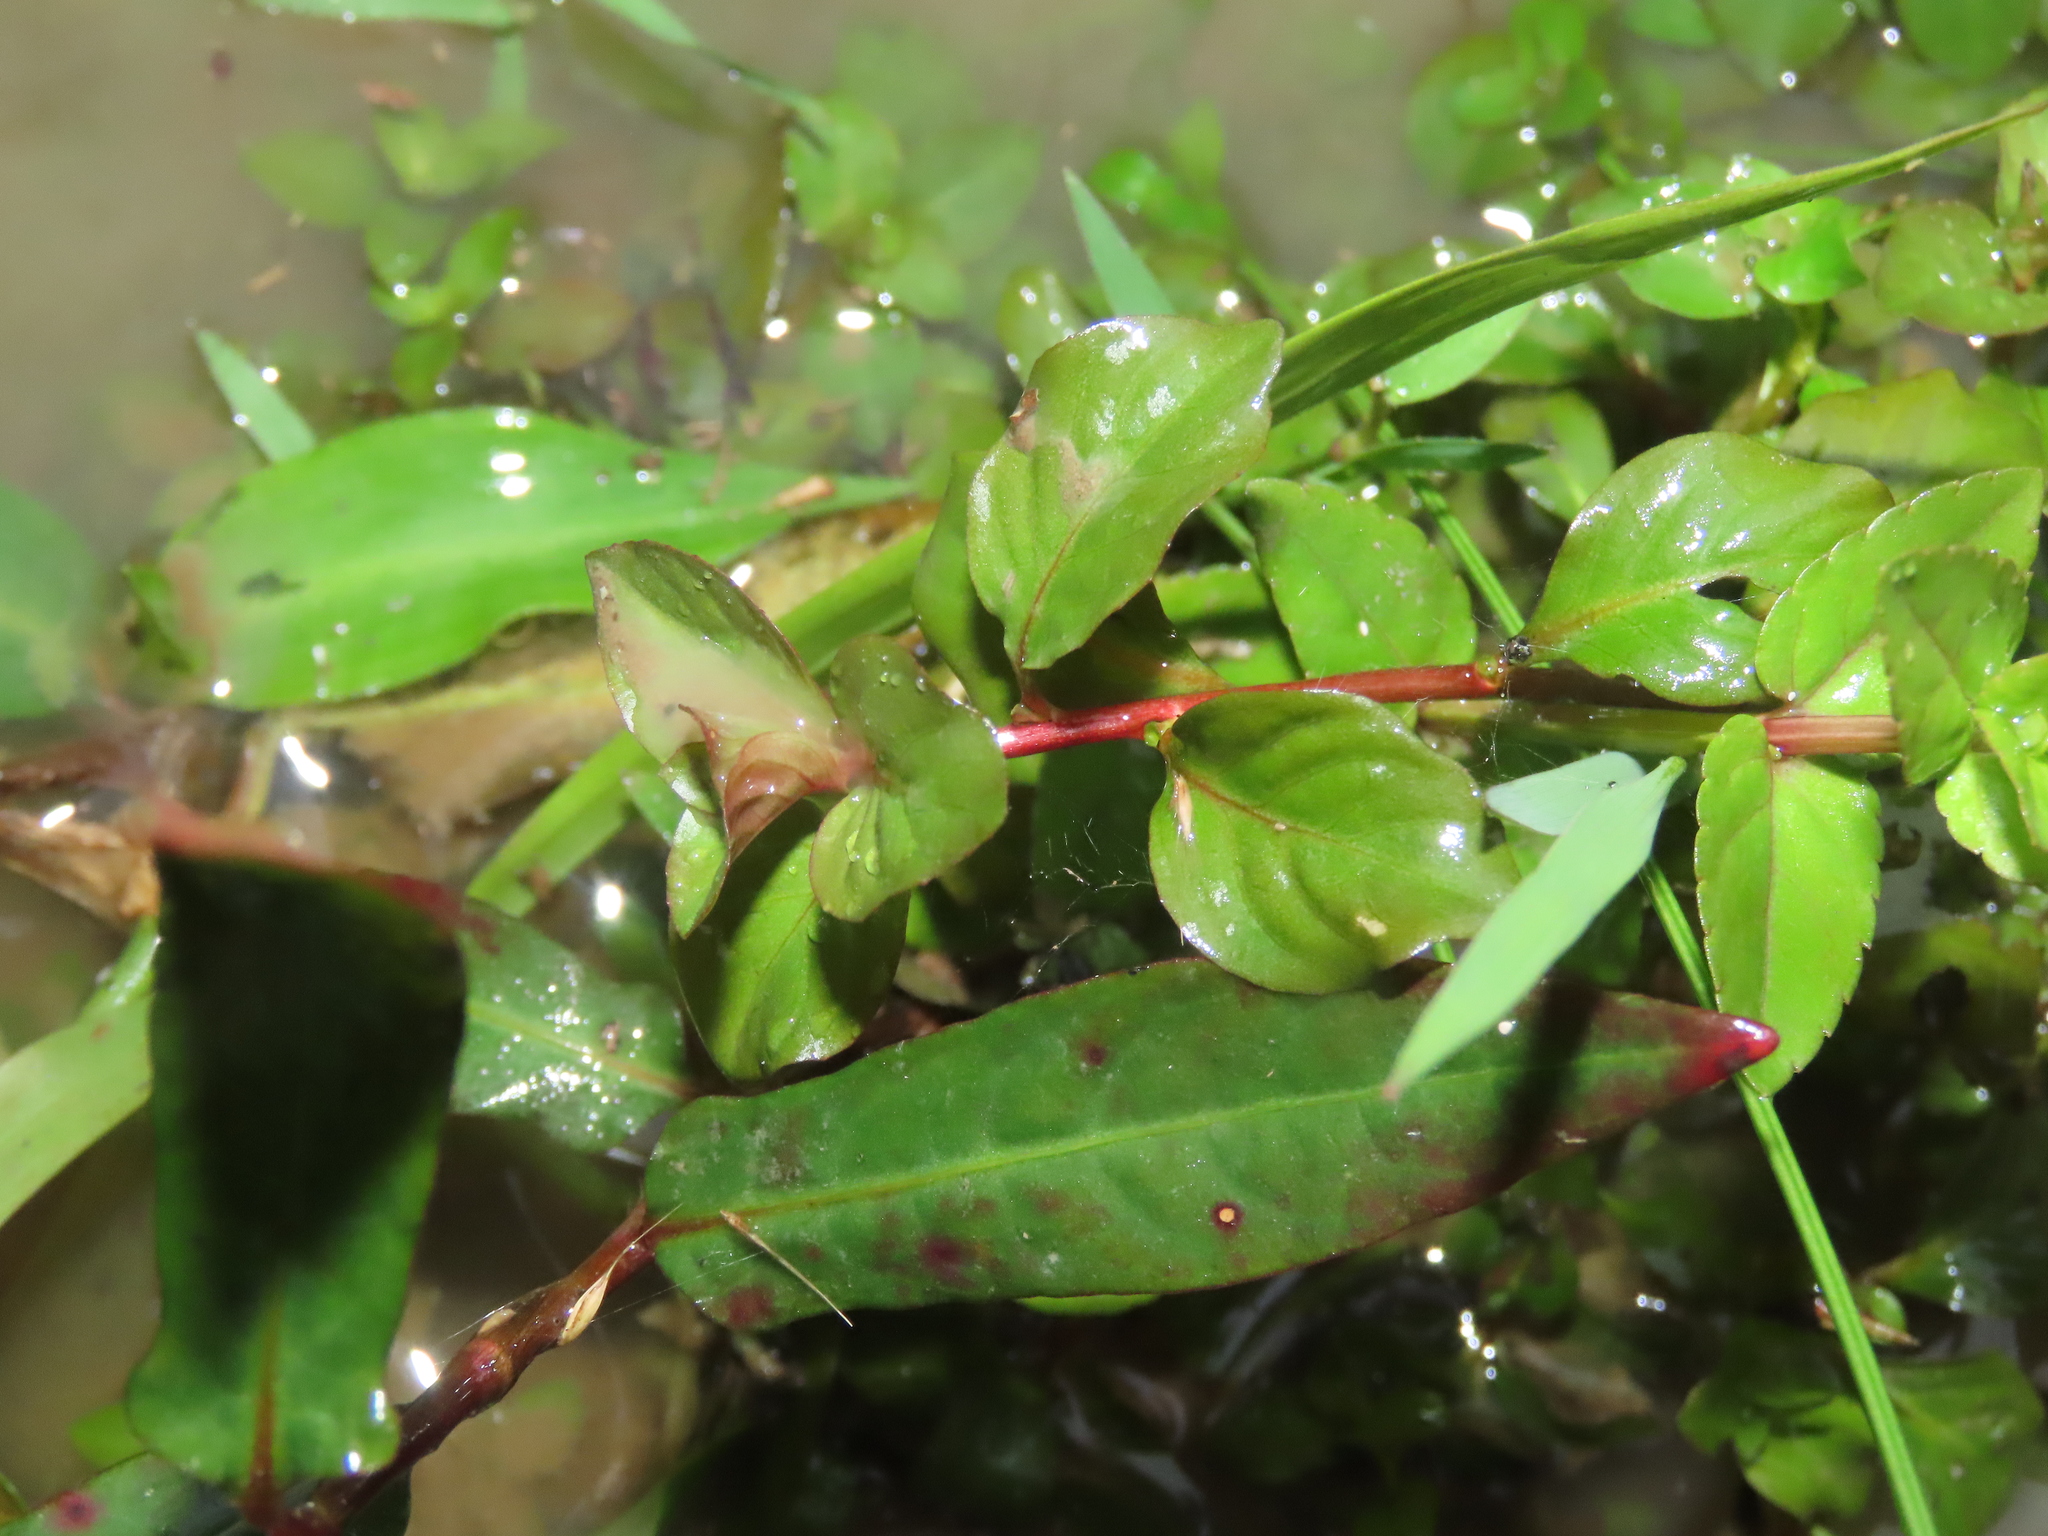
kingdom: Plantae
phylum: Tracheophyta
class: Magnoliopsida
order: Myrtales
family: Onagraceae
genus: Ludwigia
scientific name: Ludwigia ovalis
